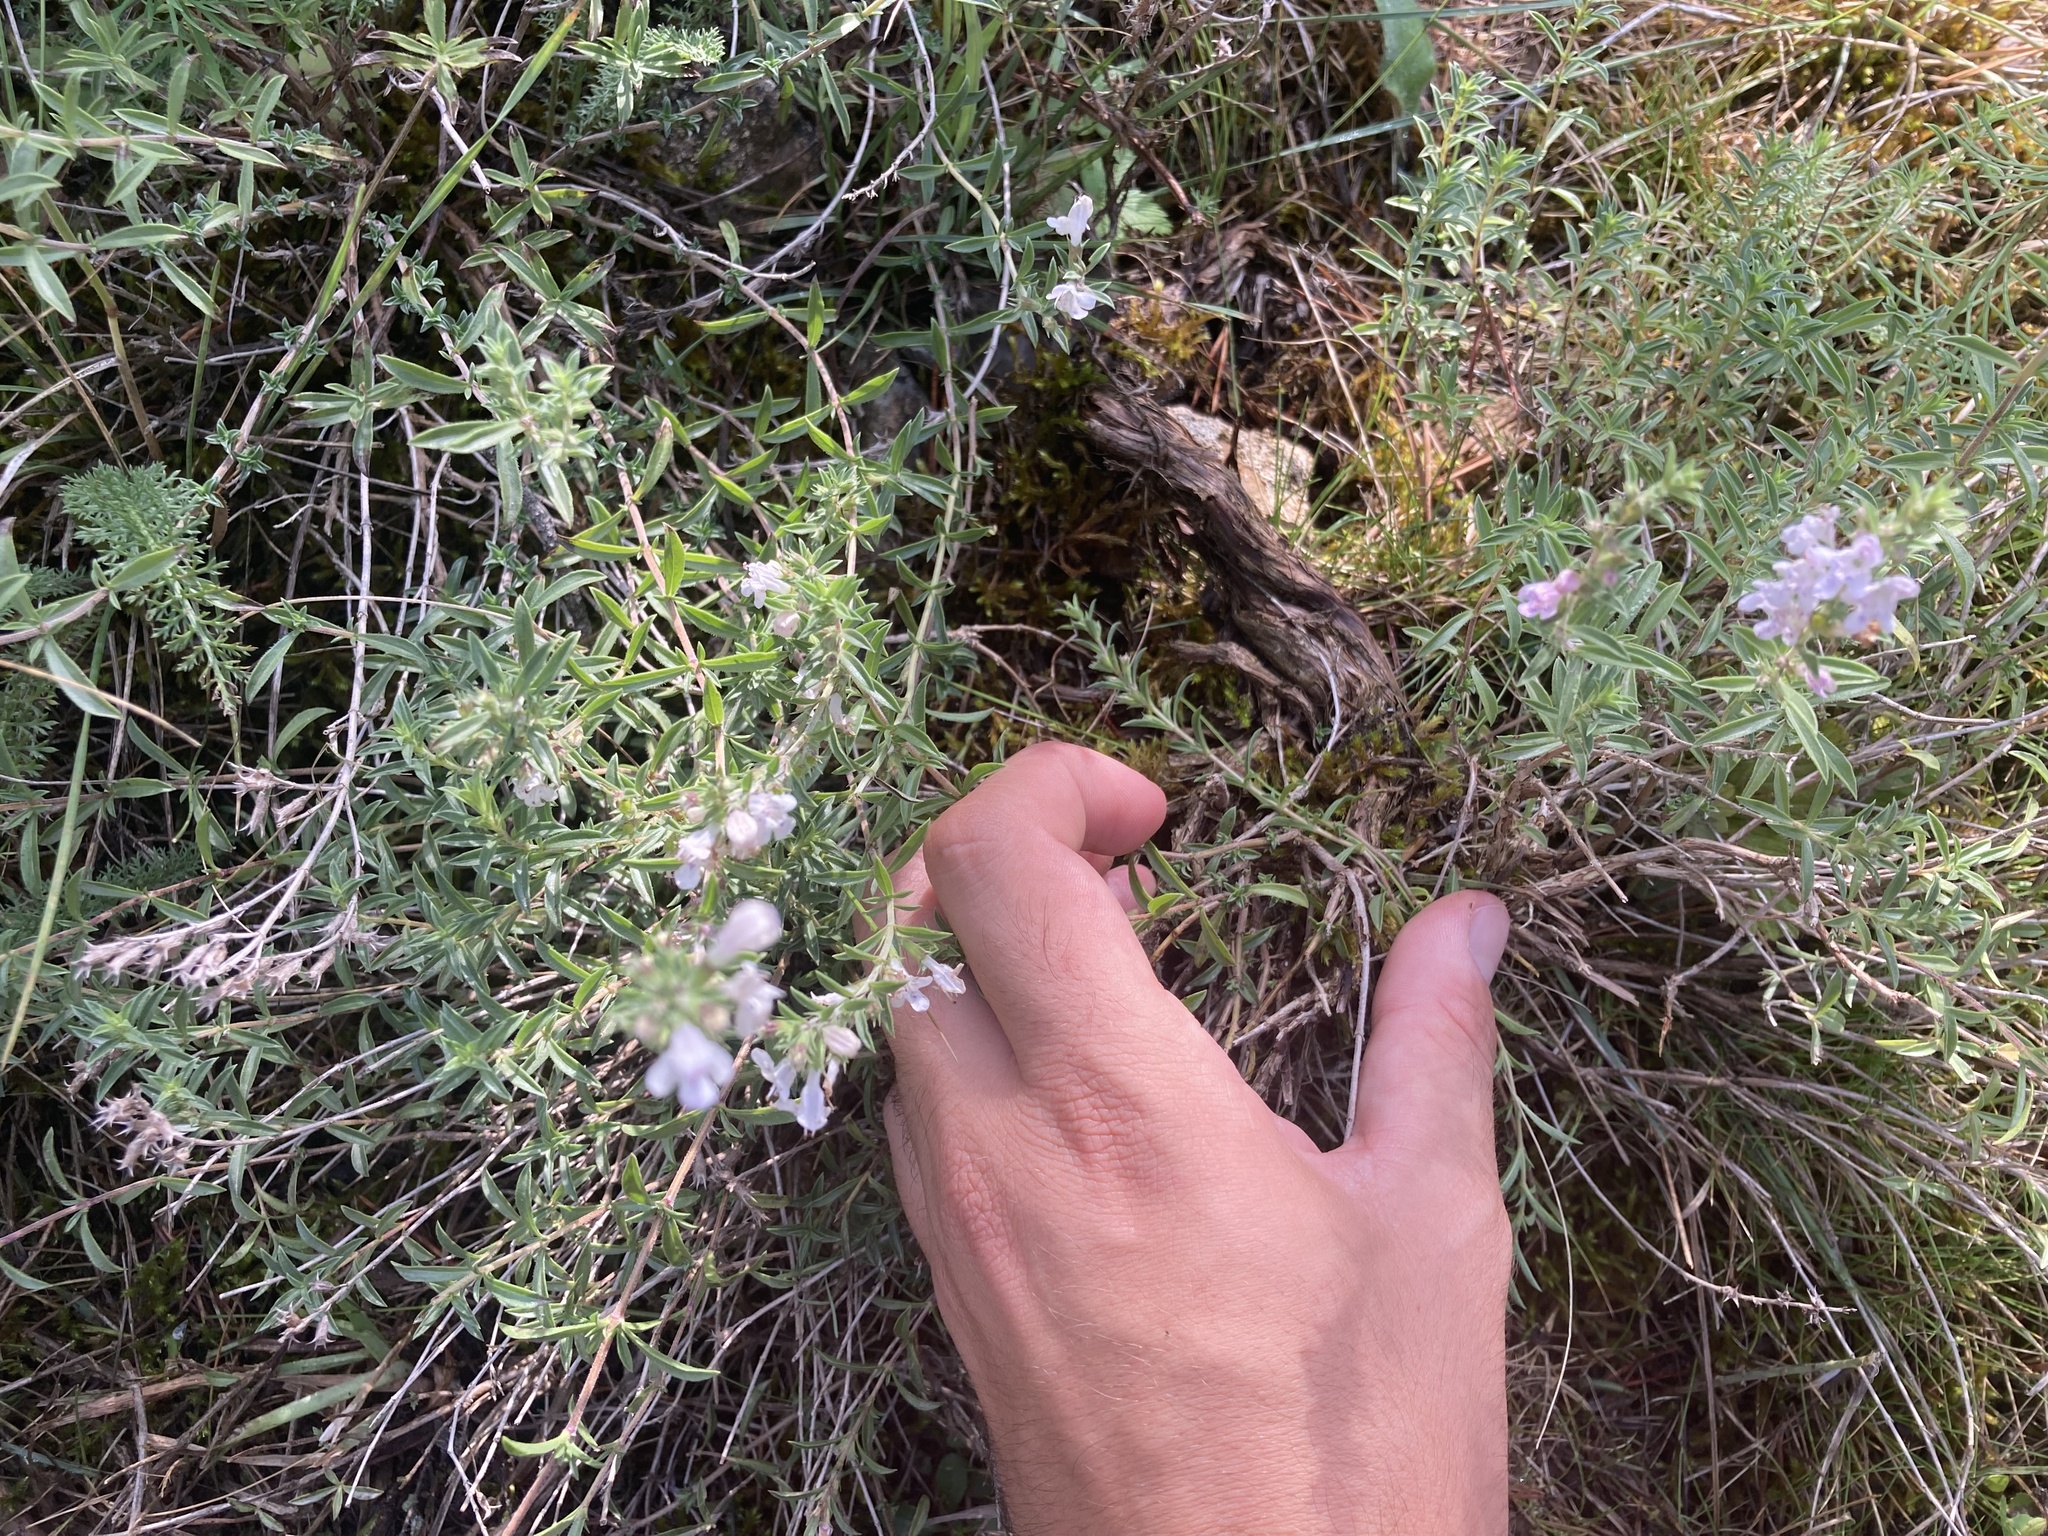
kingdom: Plantae
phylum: Tracheophyta
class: Magnoliopsida
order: Lamiales
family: Lamiaceae
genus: Satureja
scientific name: Satureja montana
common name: Winter savory
